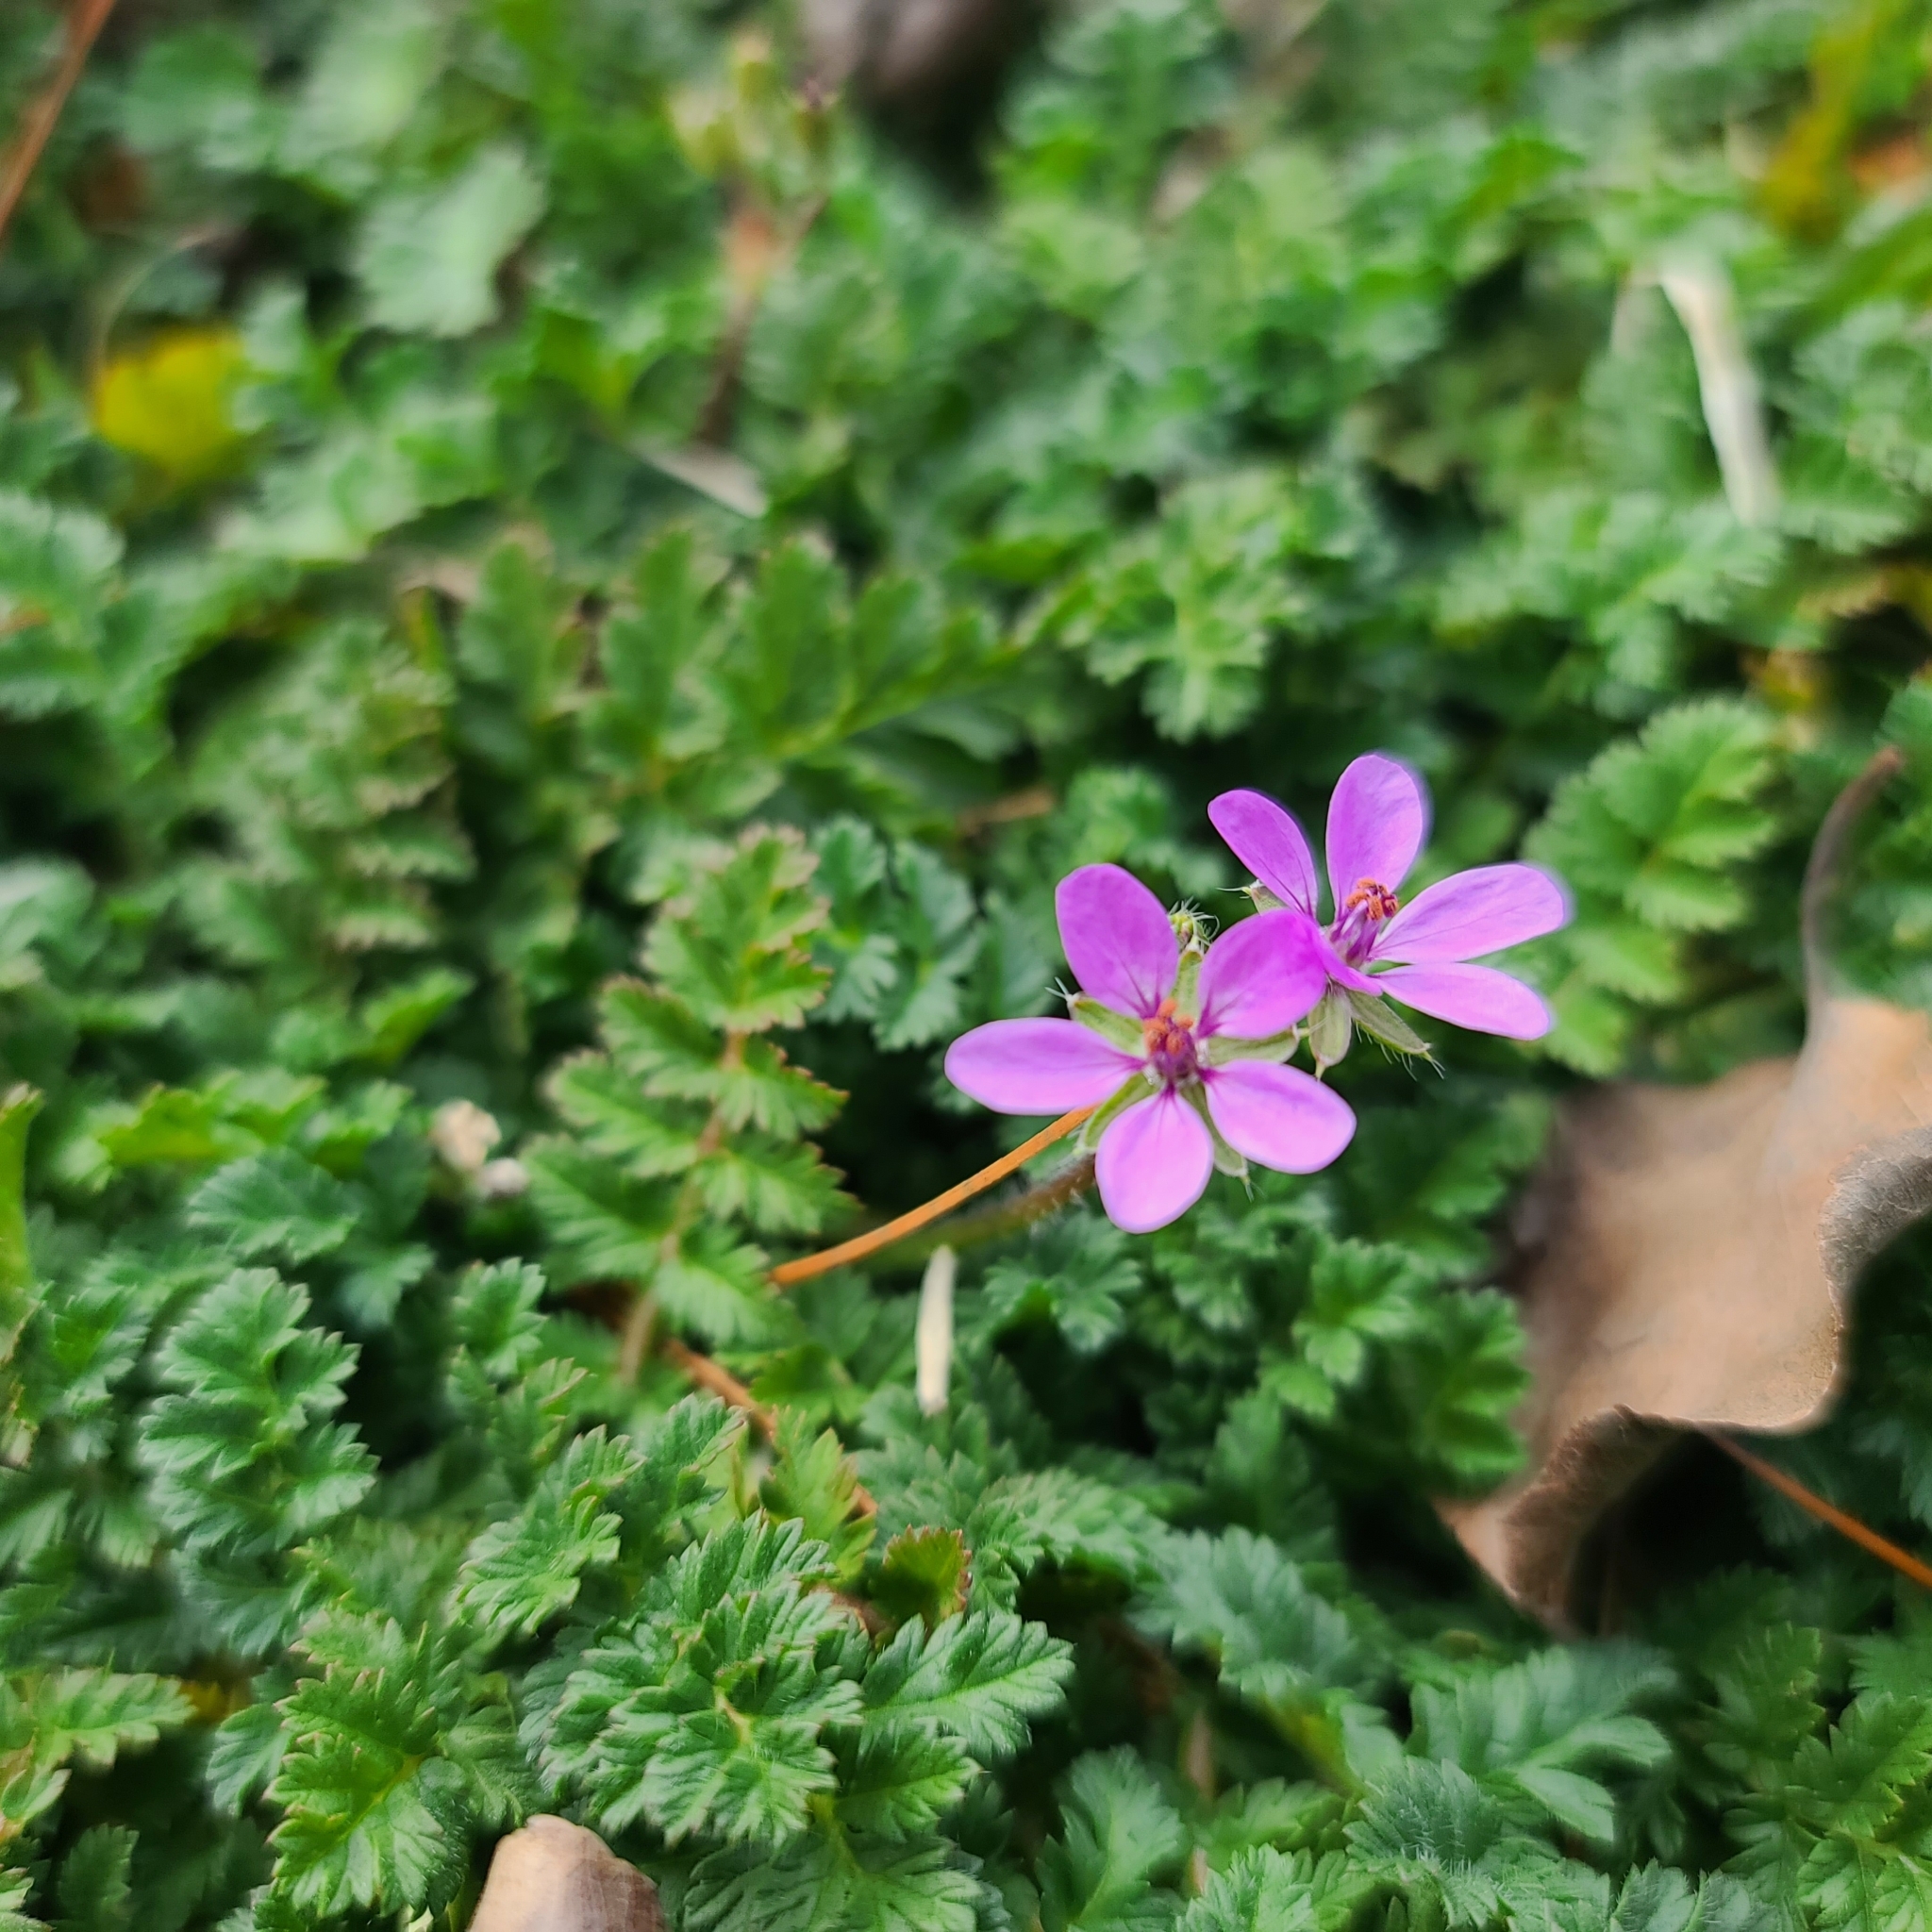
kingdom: Plantae
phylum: Tracheophyta
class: Magnoliopsida
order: Geraniales
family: Geraniaceae
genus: Erodium
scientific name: Erodium cicutarium
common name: Common stork's-bill
